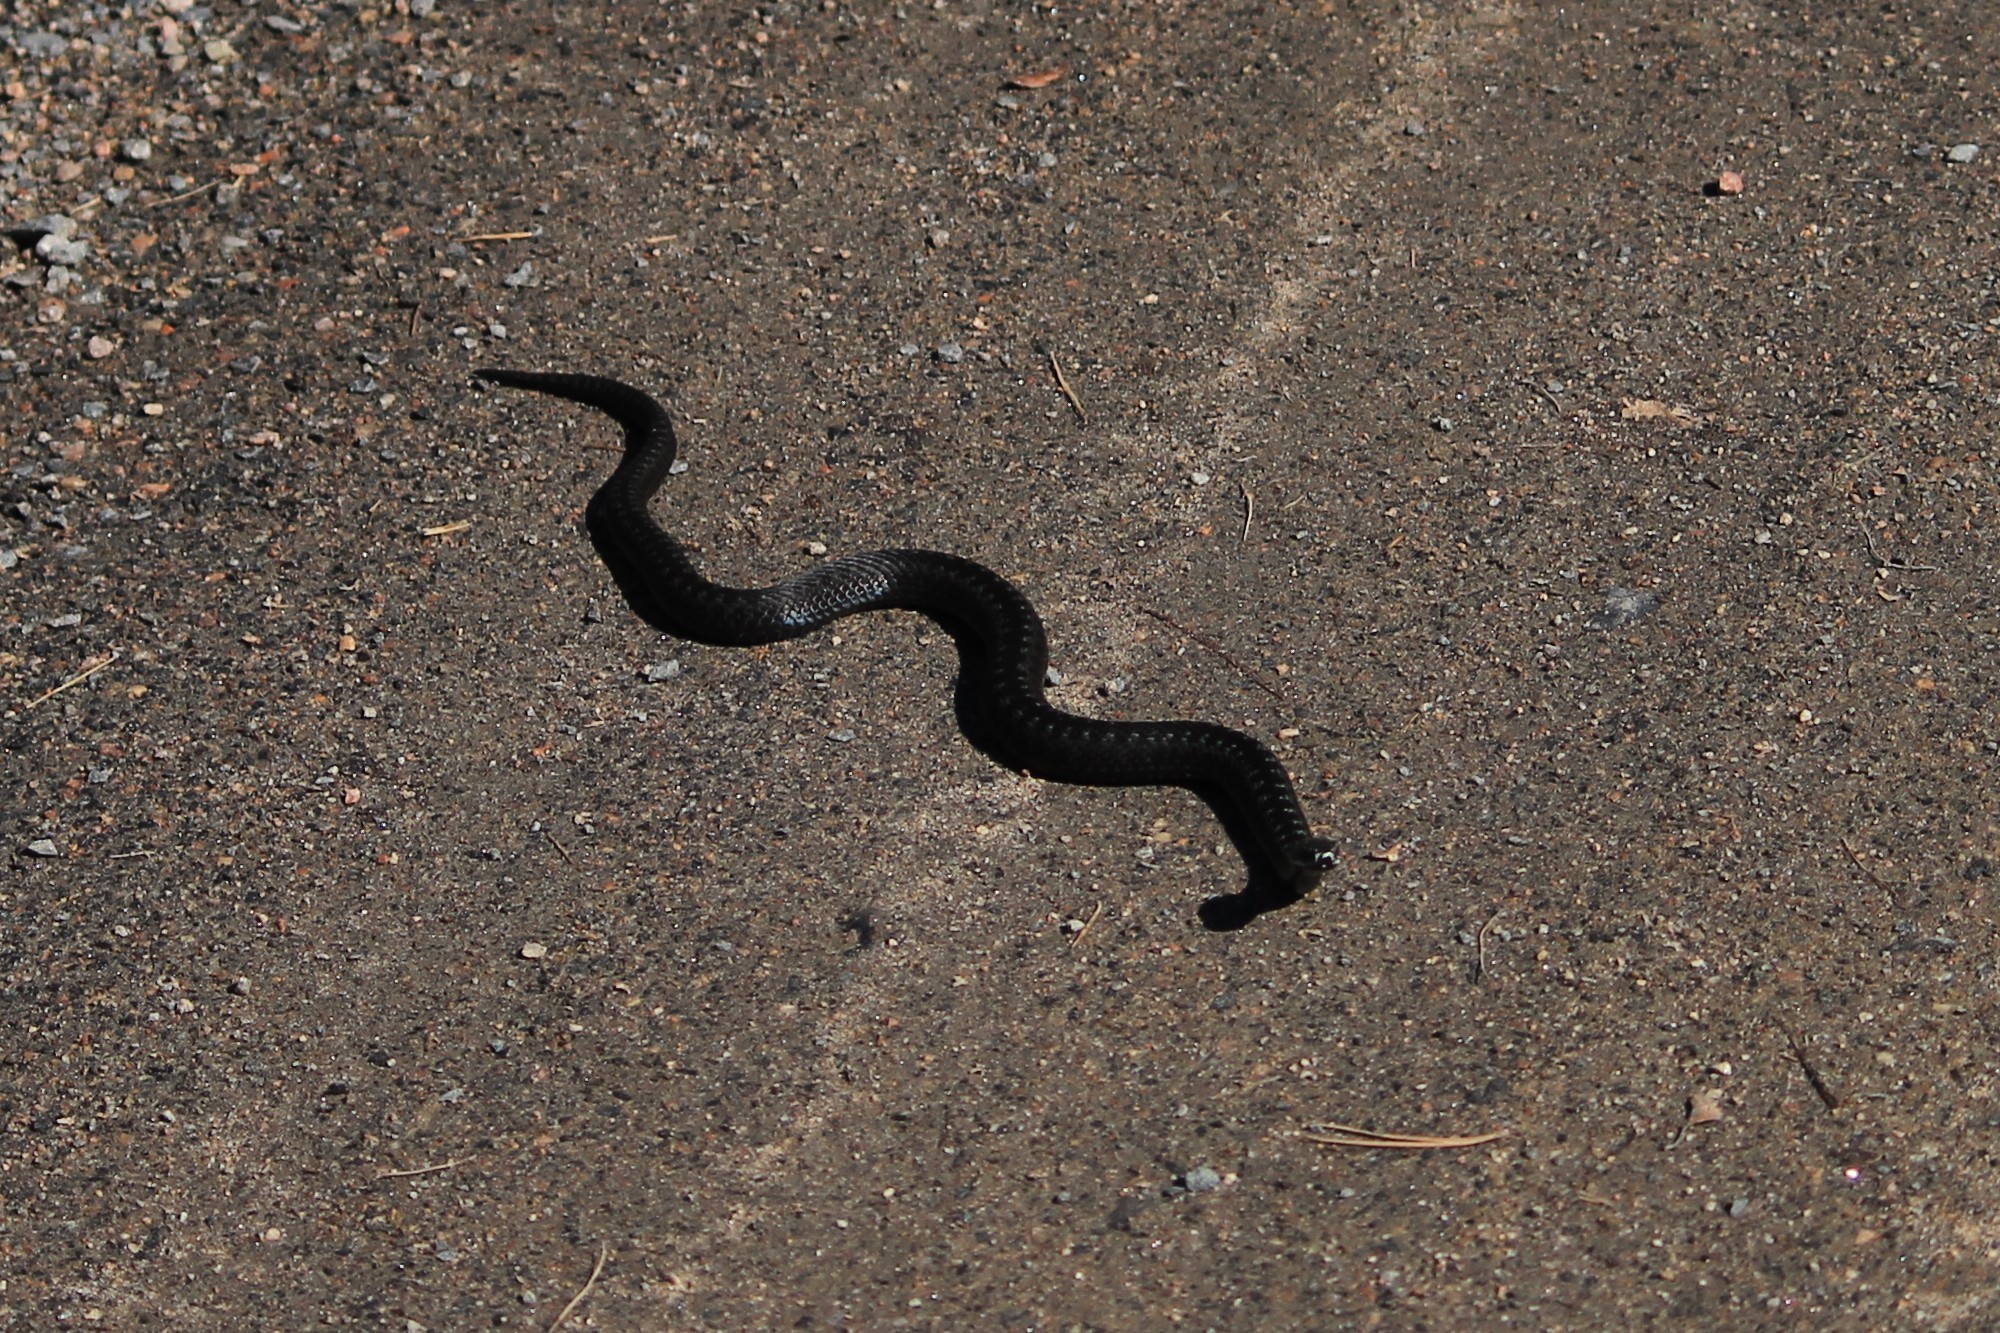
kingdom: Animalia
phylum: Chordata
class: Squamata
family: Viperidae
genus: Vipera
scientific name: Vipera berus
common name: Adder
